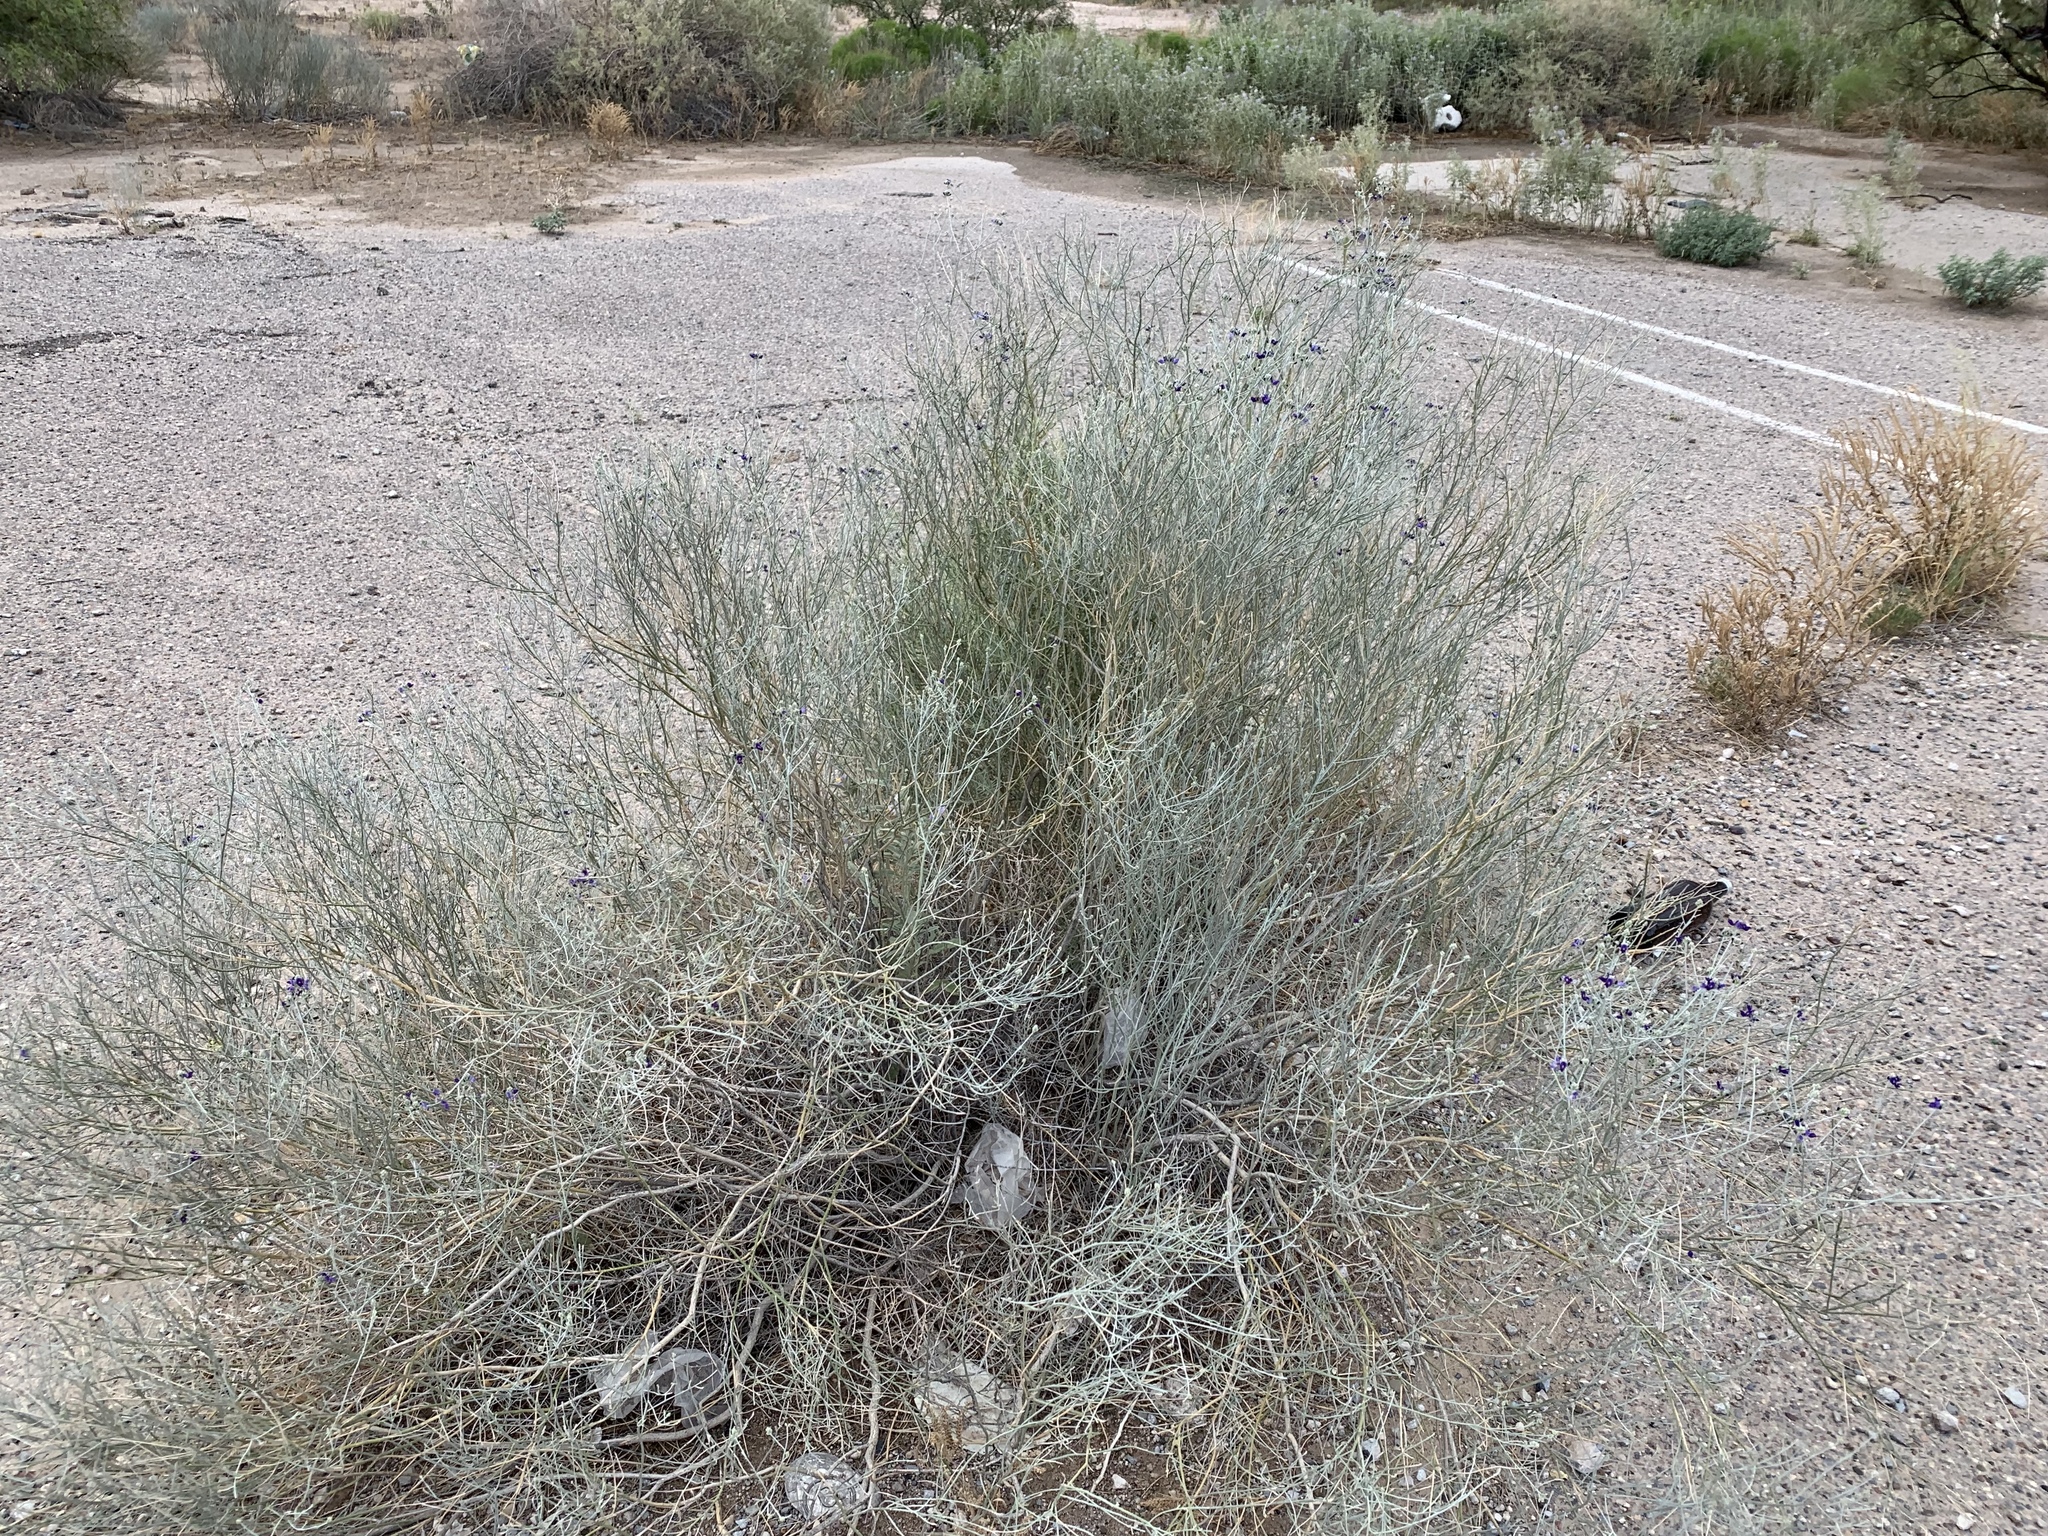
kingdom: Plantae
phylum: Tracheophyta
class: Magnoliopsida
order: Fabales
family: Fabaceae
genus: Psorothamnus
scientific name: Psorothamnus scoparius
